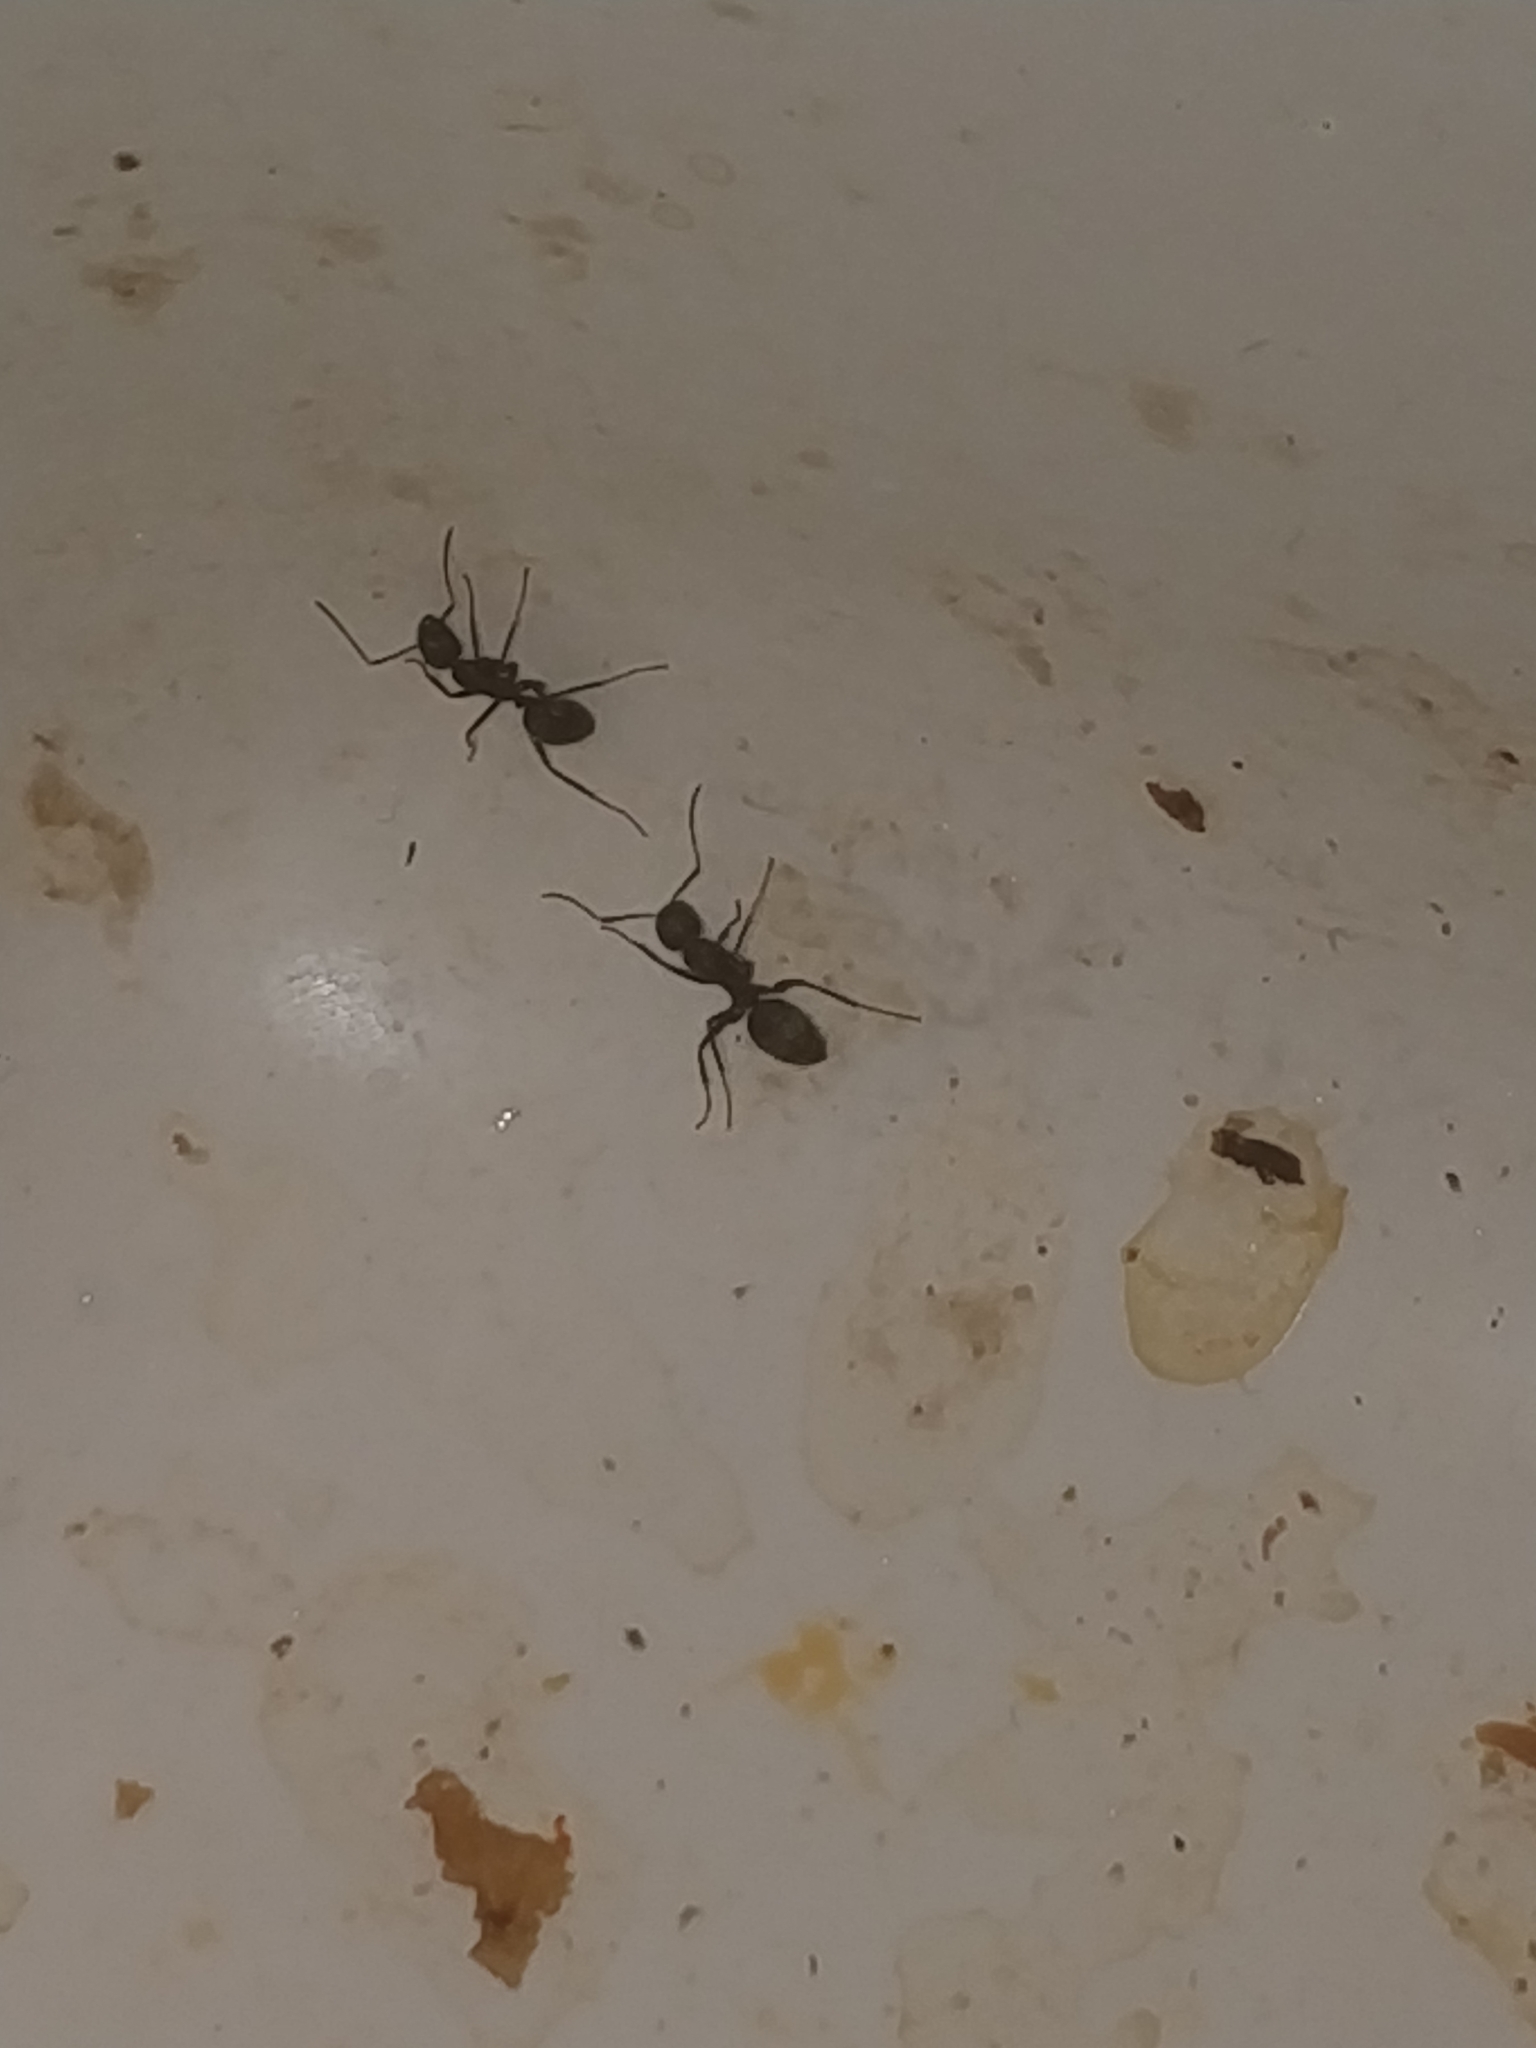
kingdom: Animalia
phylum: Arthropoda
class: Insecta
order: Hymenoptera
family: Formicidae
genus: Camponotus
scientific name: Camponotus pennsylvanicus
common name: Black carpenter ant
